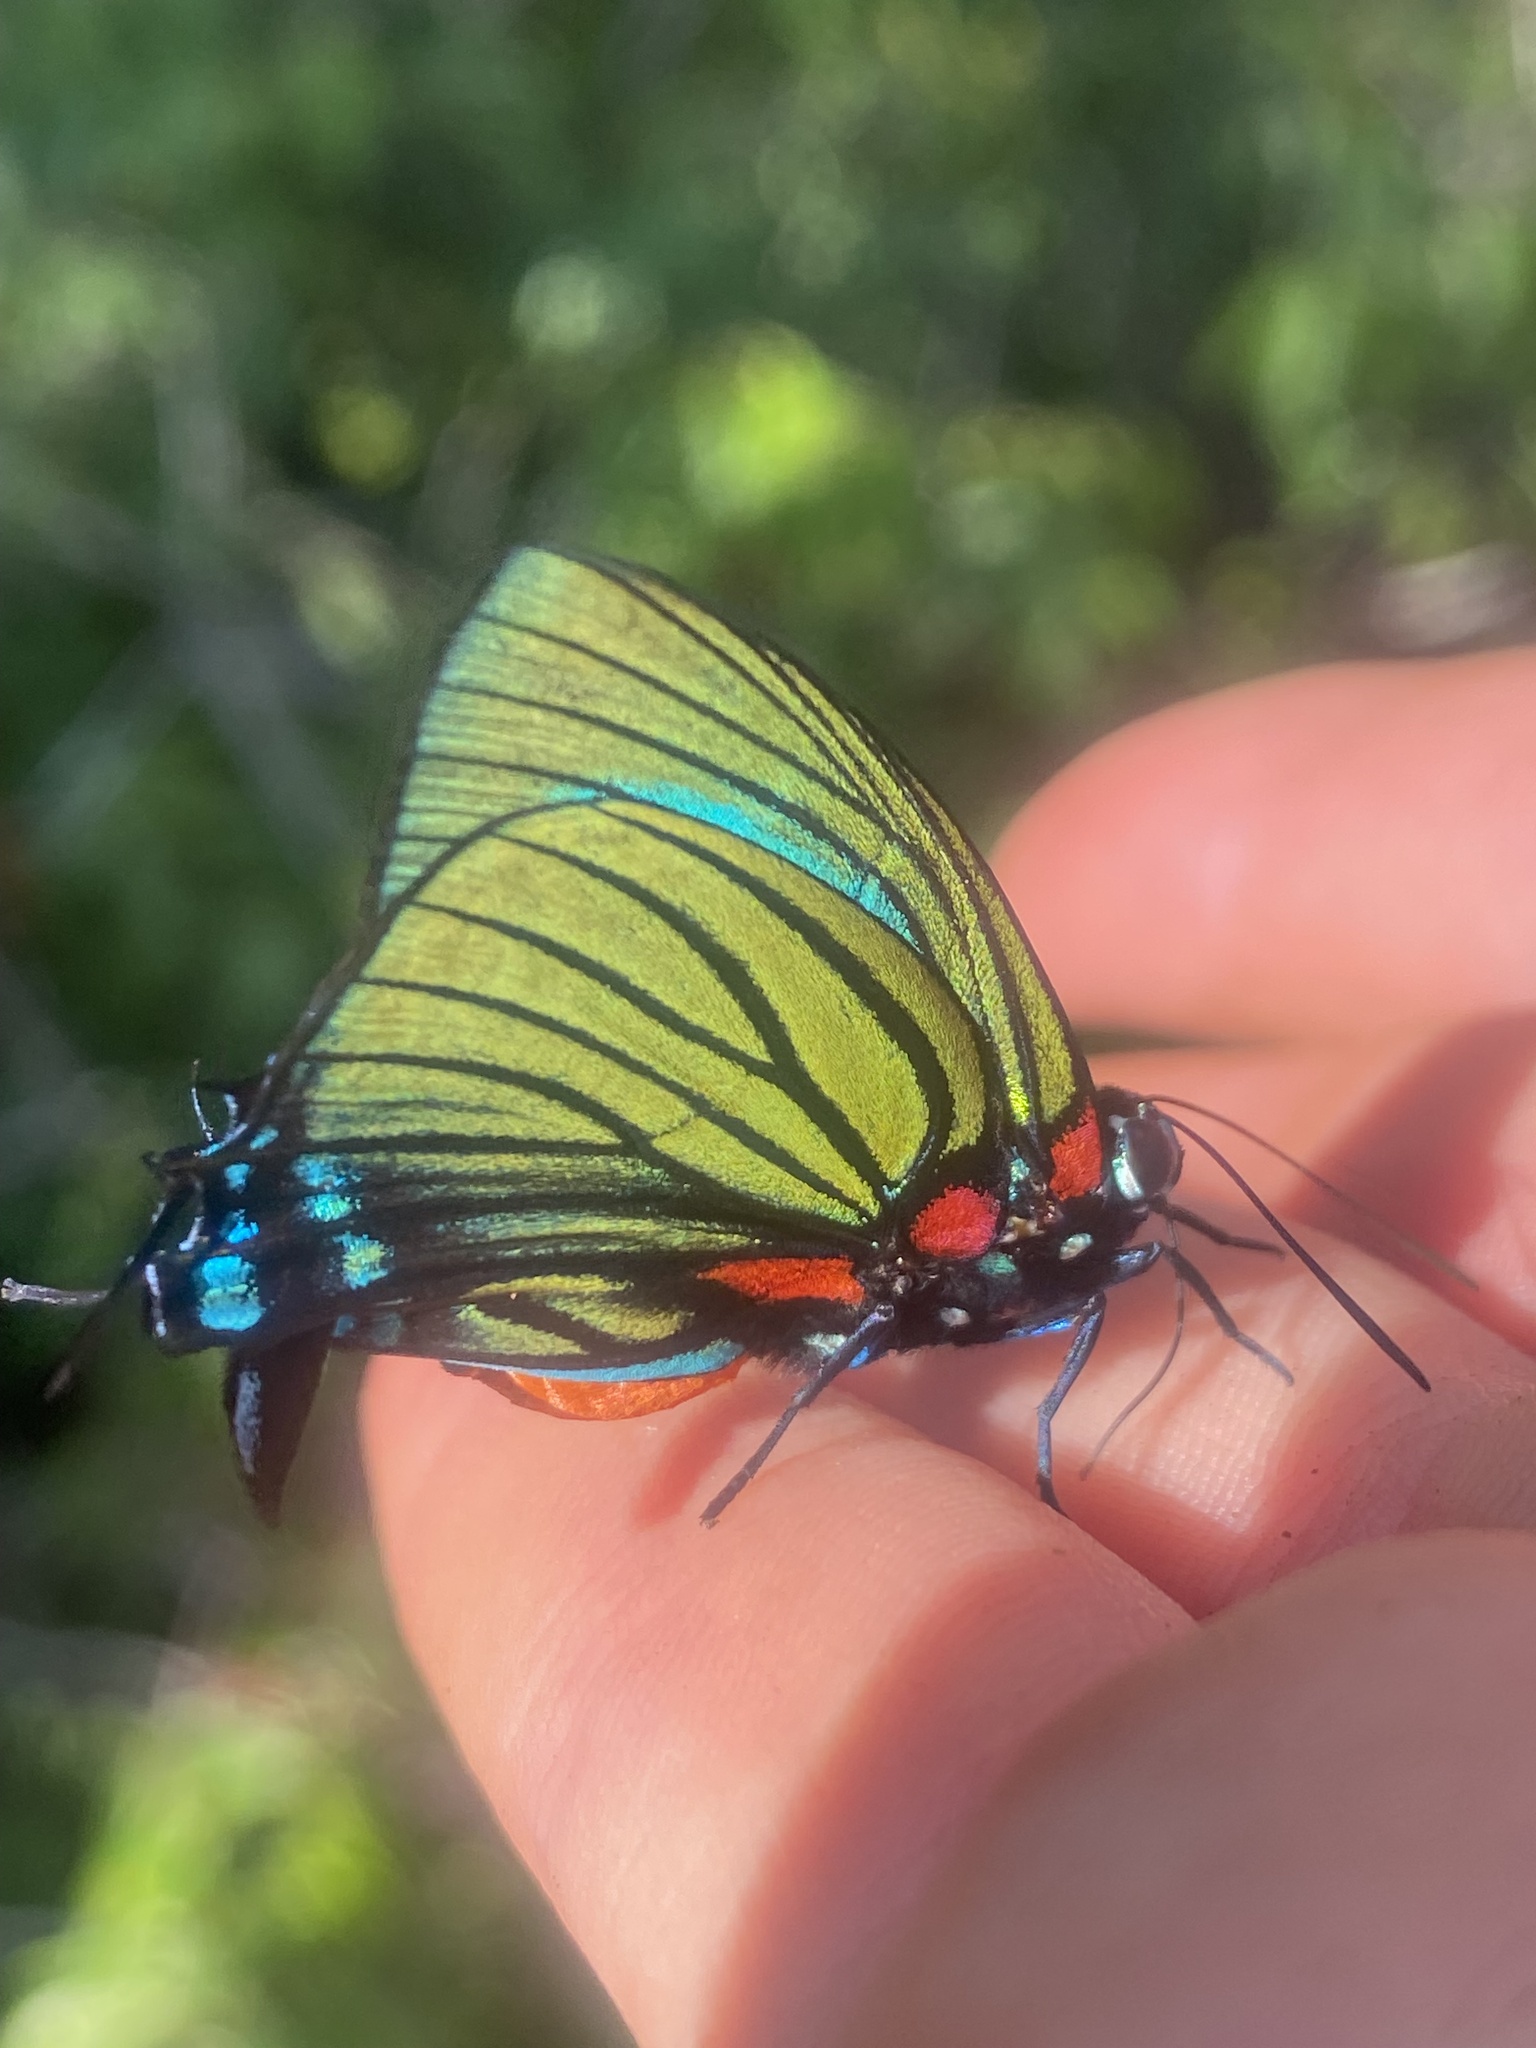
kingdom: Animalia
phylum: Arthropoda
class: Insecta
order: Lepidoptera
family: Lycaenidae
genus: Thecla
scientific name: Thecla polybe
